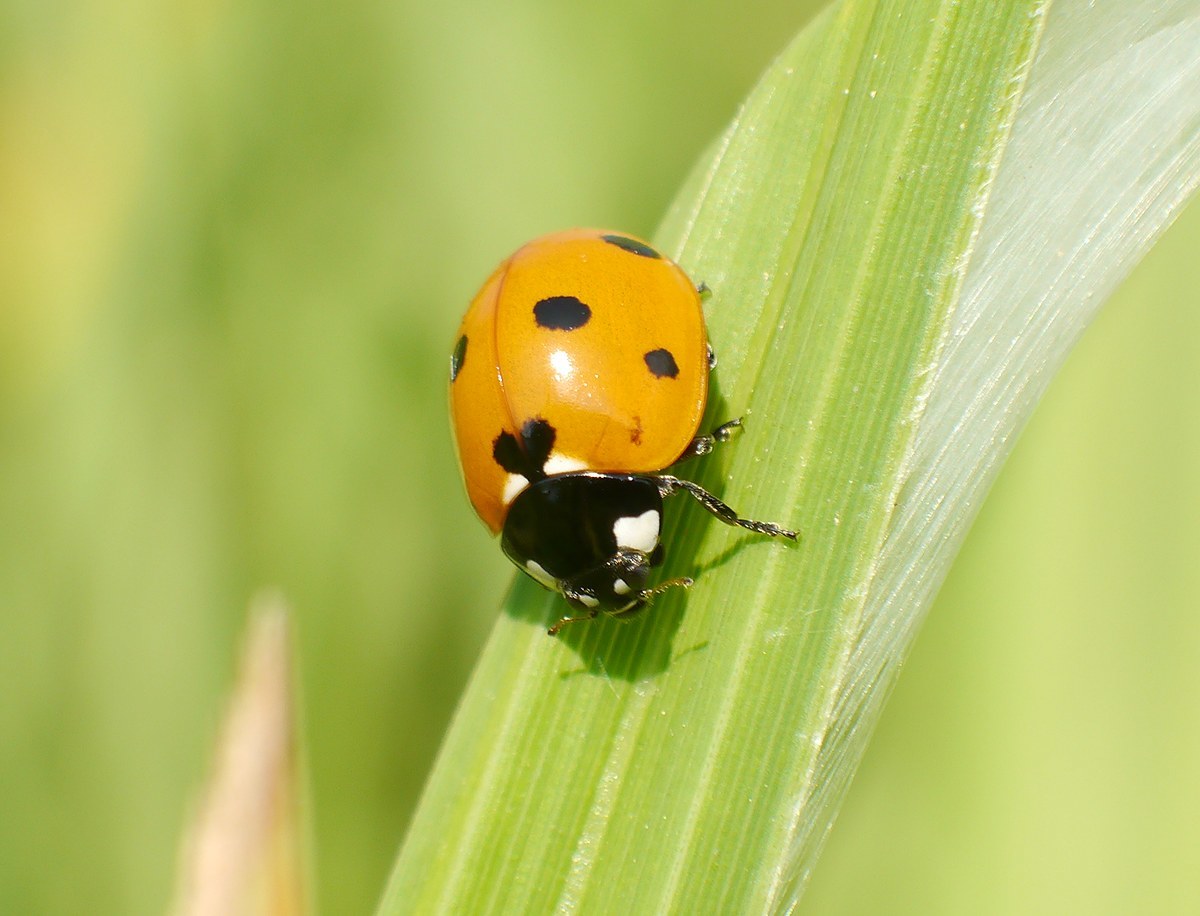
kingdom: Animalia
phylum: Arthropoda
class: Insecta
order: Coleoptera
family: Coccinellidae
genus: Coccinella
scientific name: Coccinella septempunctata
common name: Sevenspotted lady beetle
